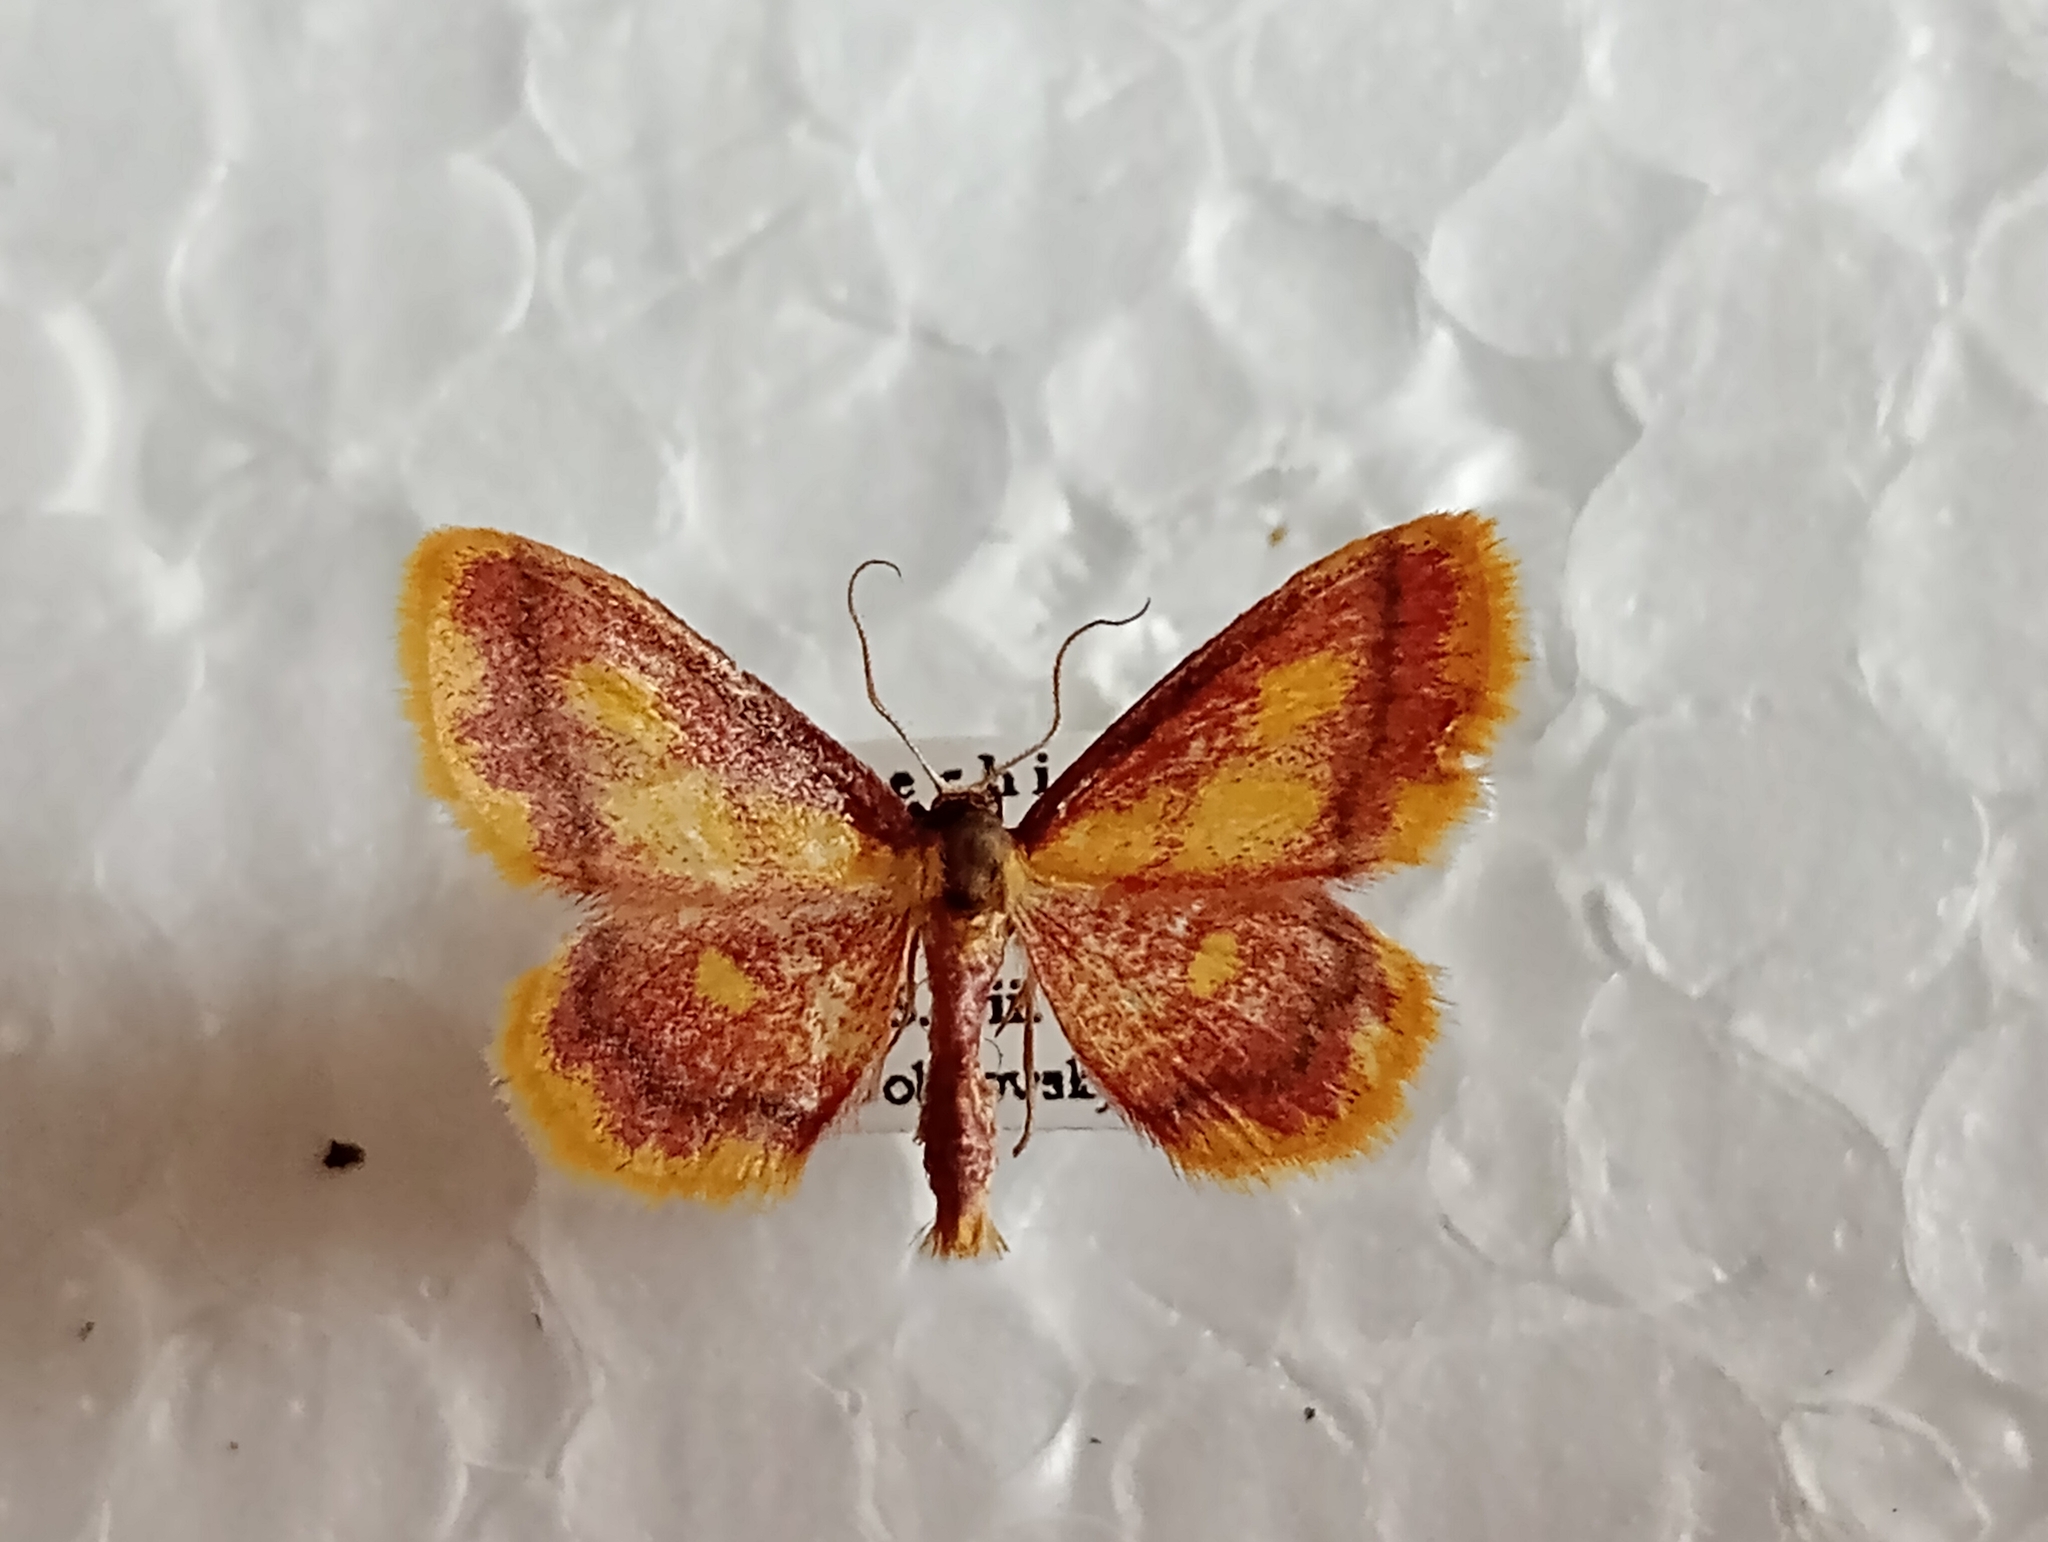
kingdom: Animalia
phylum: Arthropoda
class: Insecta
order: Lepidoptera
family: Geometridae
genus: Idaea
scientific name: Idaea muricata
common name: Purple-bordered gold
